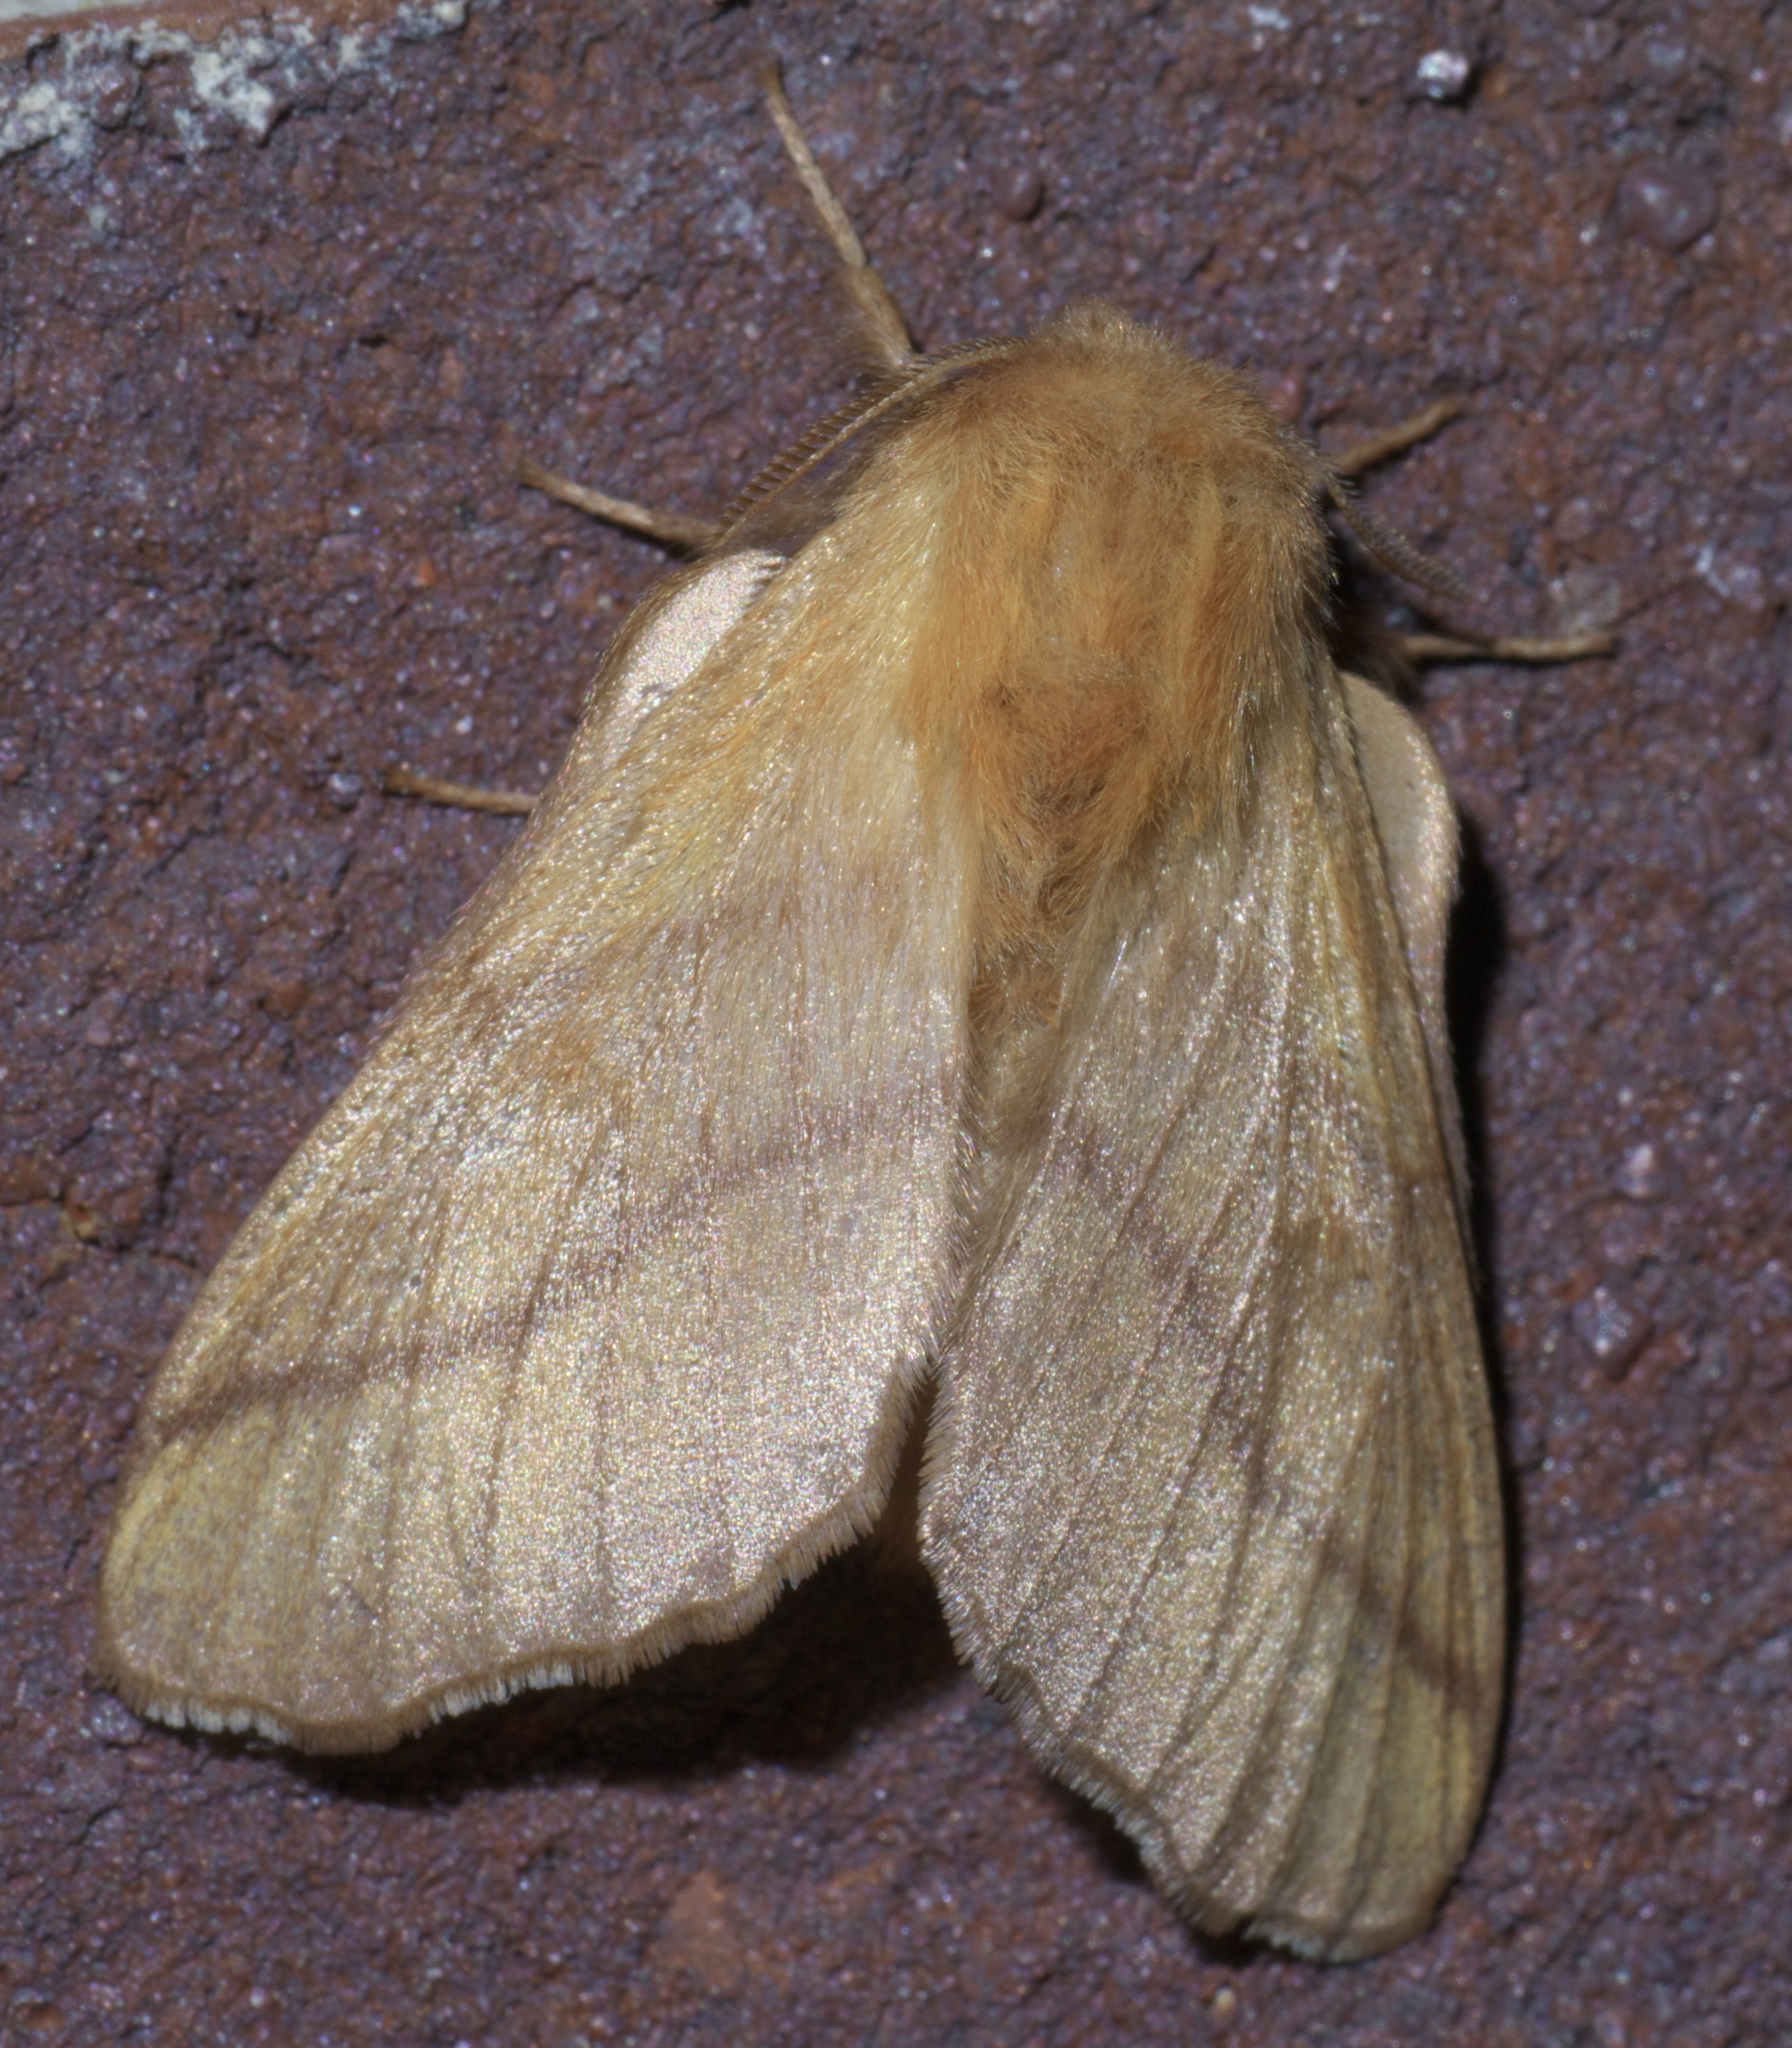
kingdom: Animalia
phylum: Arthropoda
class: Insecta
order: Lepidoptera
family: Lasiocampidae
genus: Malacosoma
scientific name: Malacosoma disstria
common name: Forest tent caterpillar
